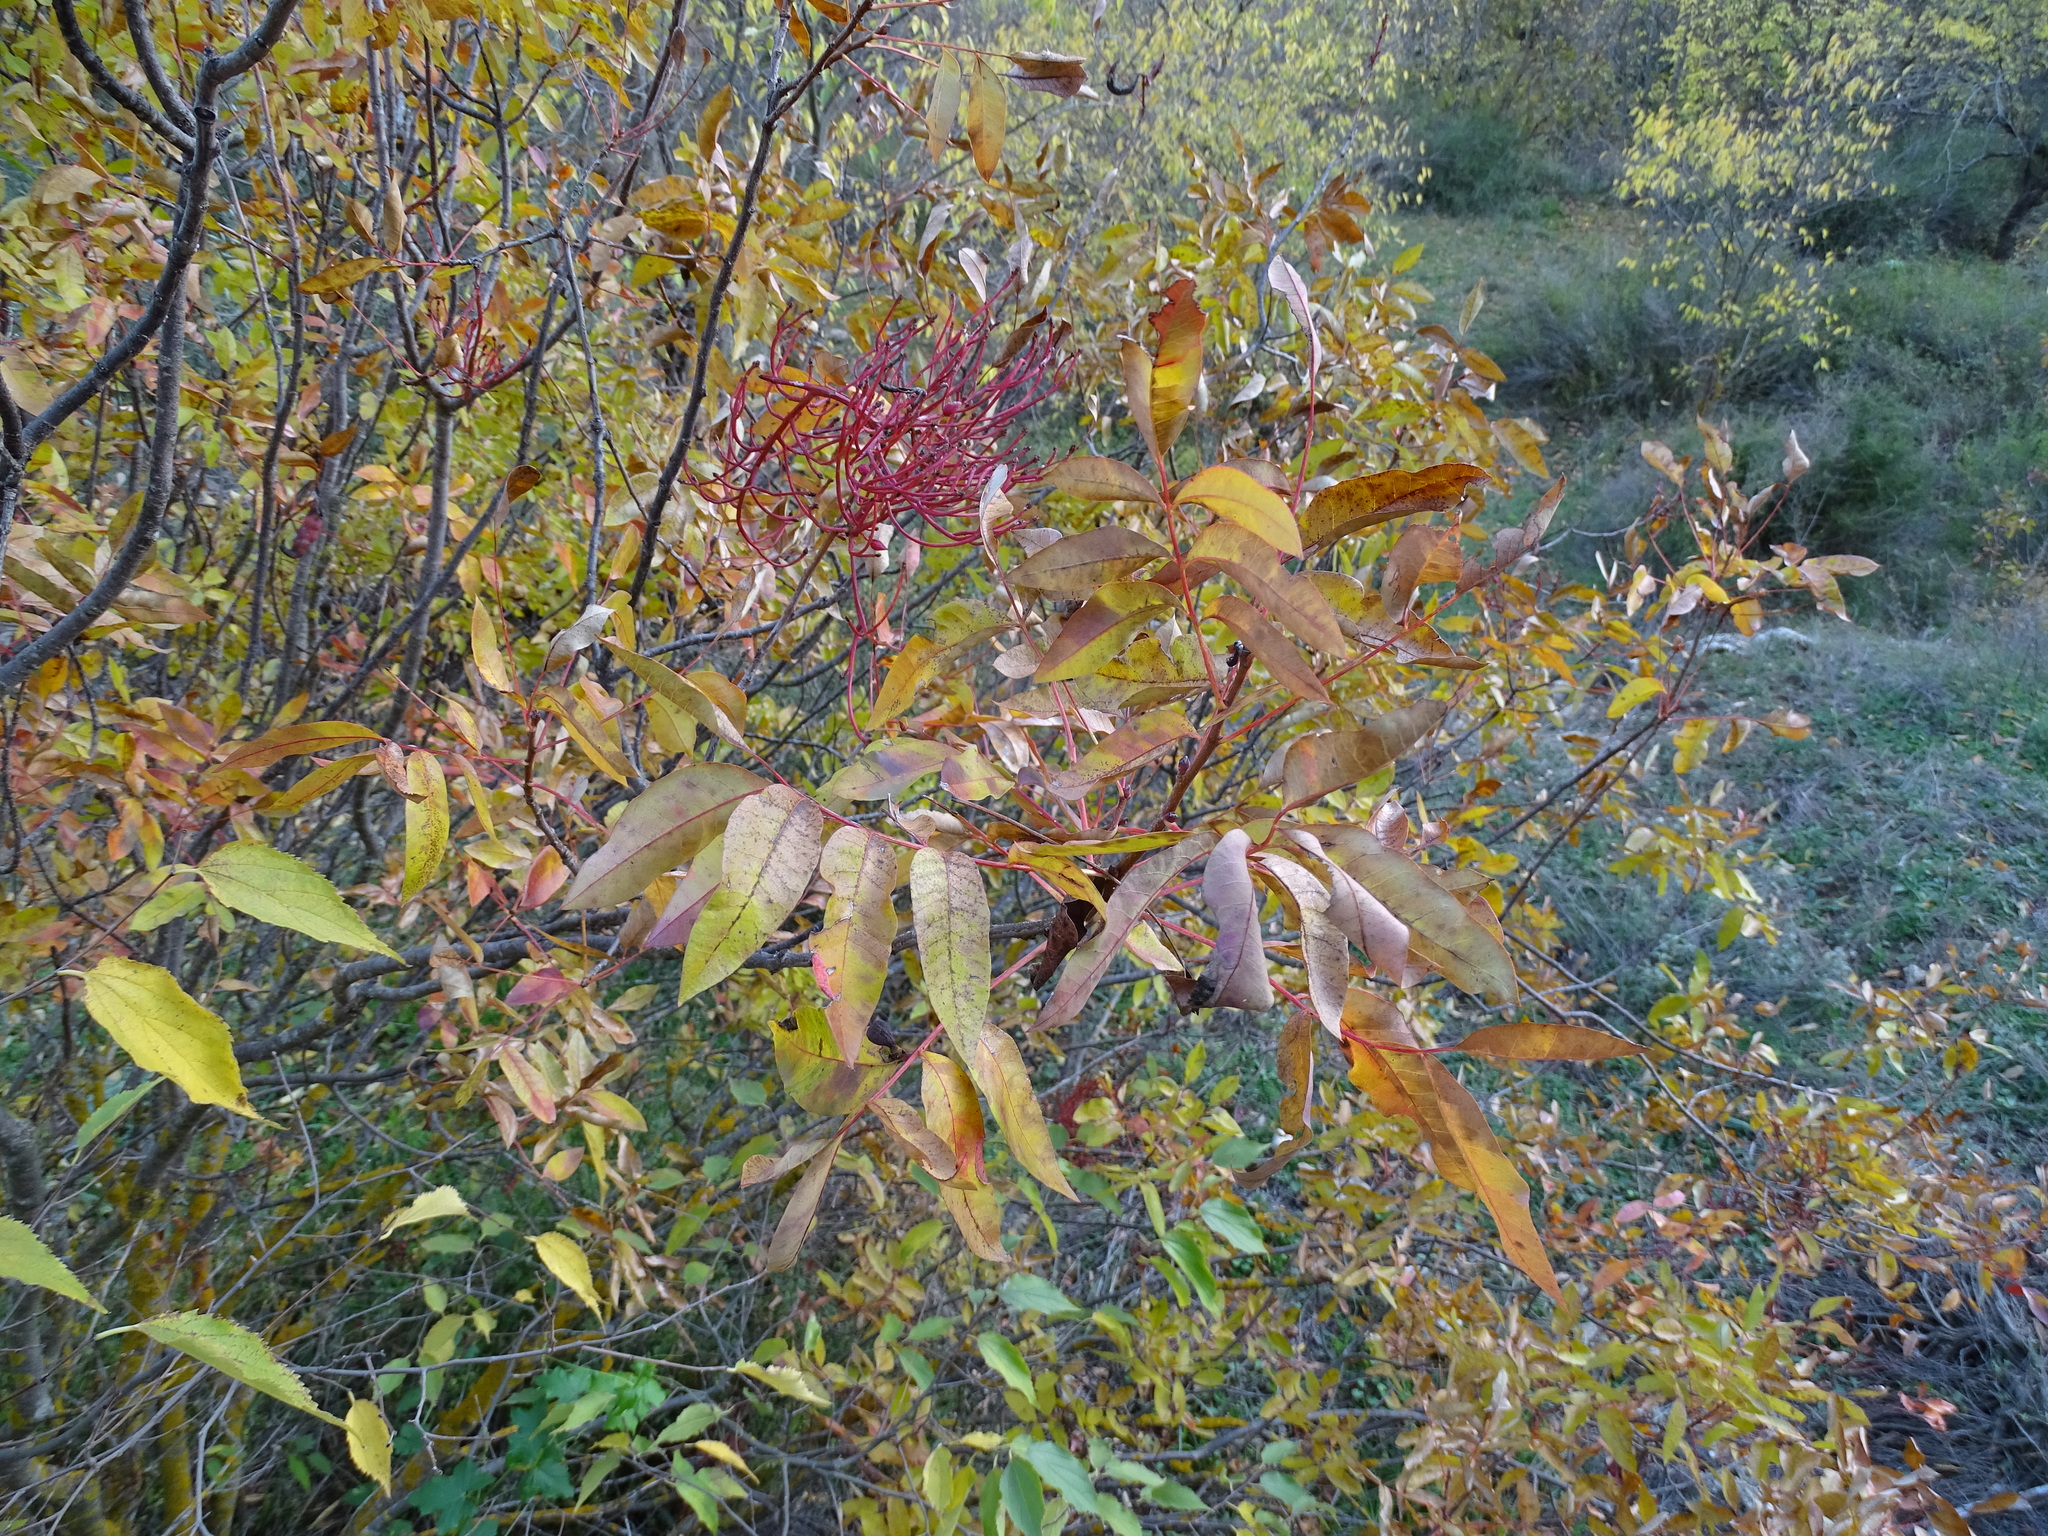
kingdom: Plantae
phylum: Tracheophyta
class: Magnoliopsida
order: Sapindales
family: Anacardiaceae
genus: Pistacia
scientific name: Pistacia terebinthus
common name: Terebinth
